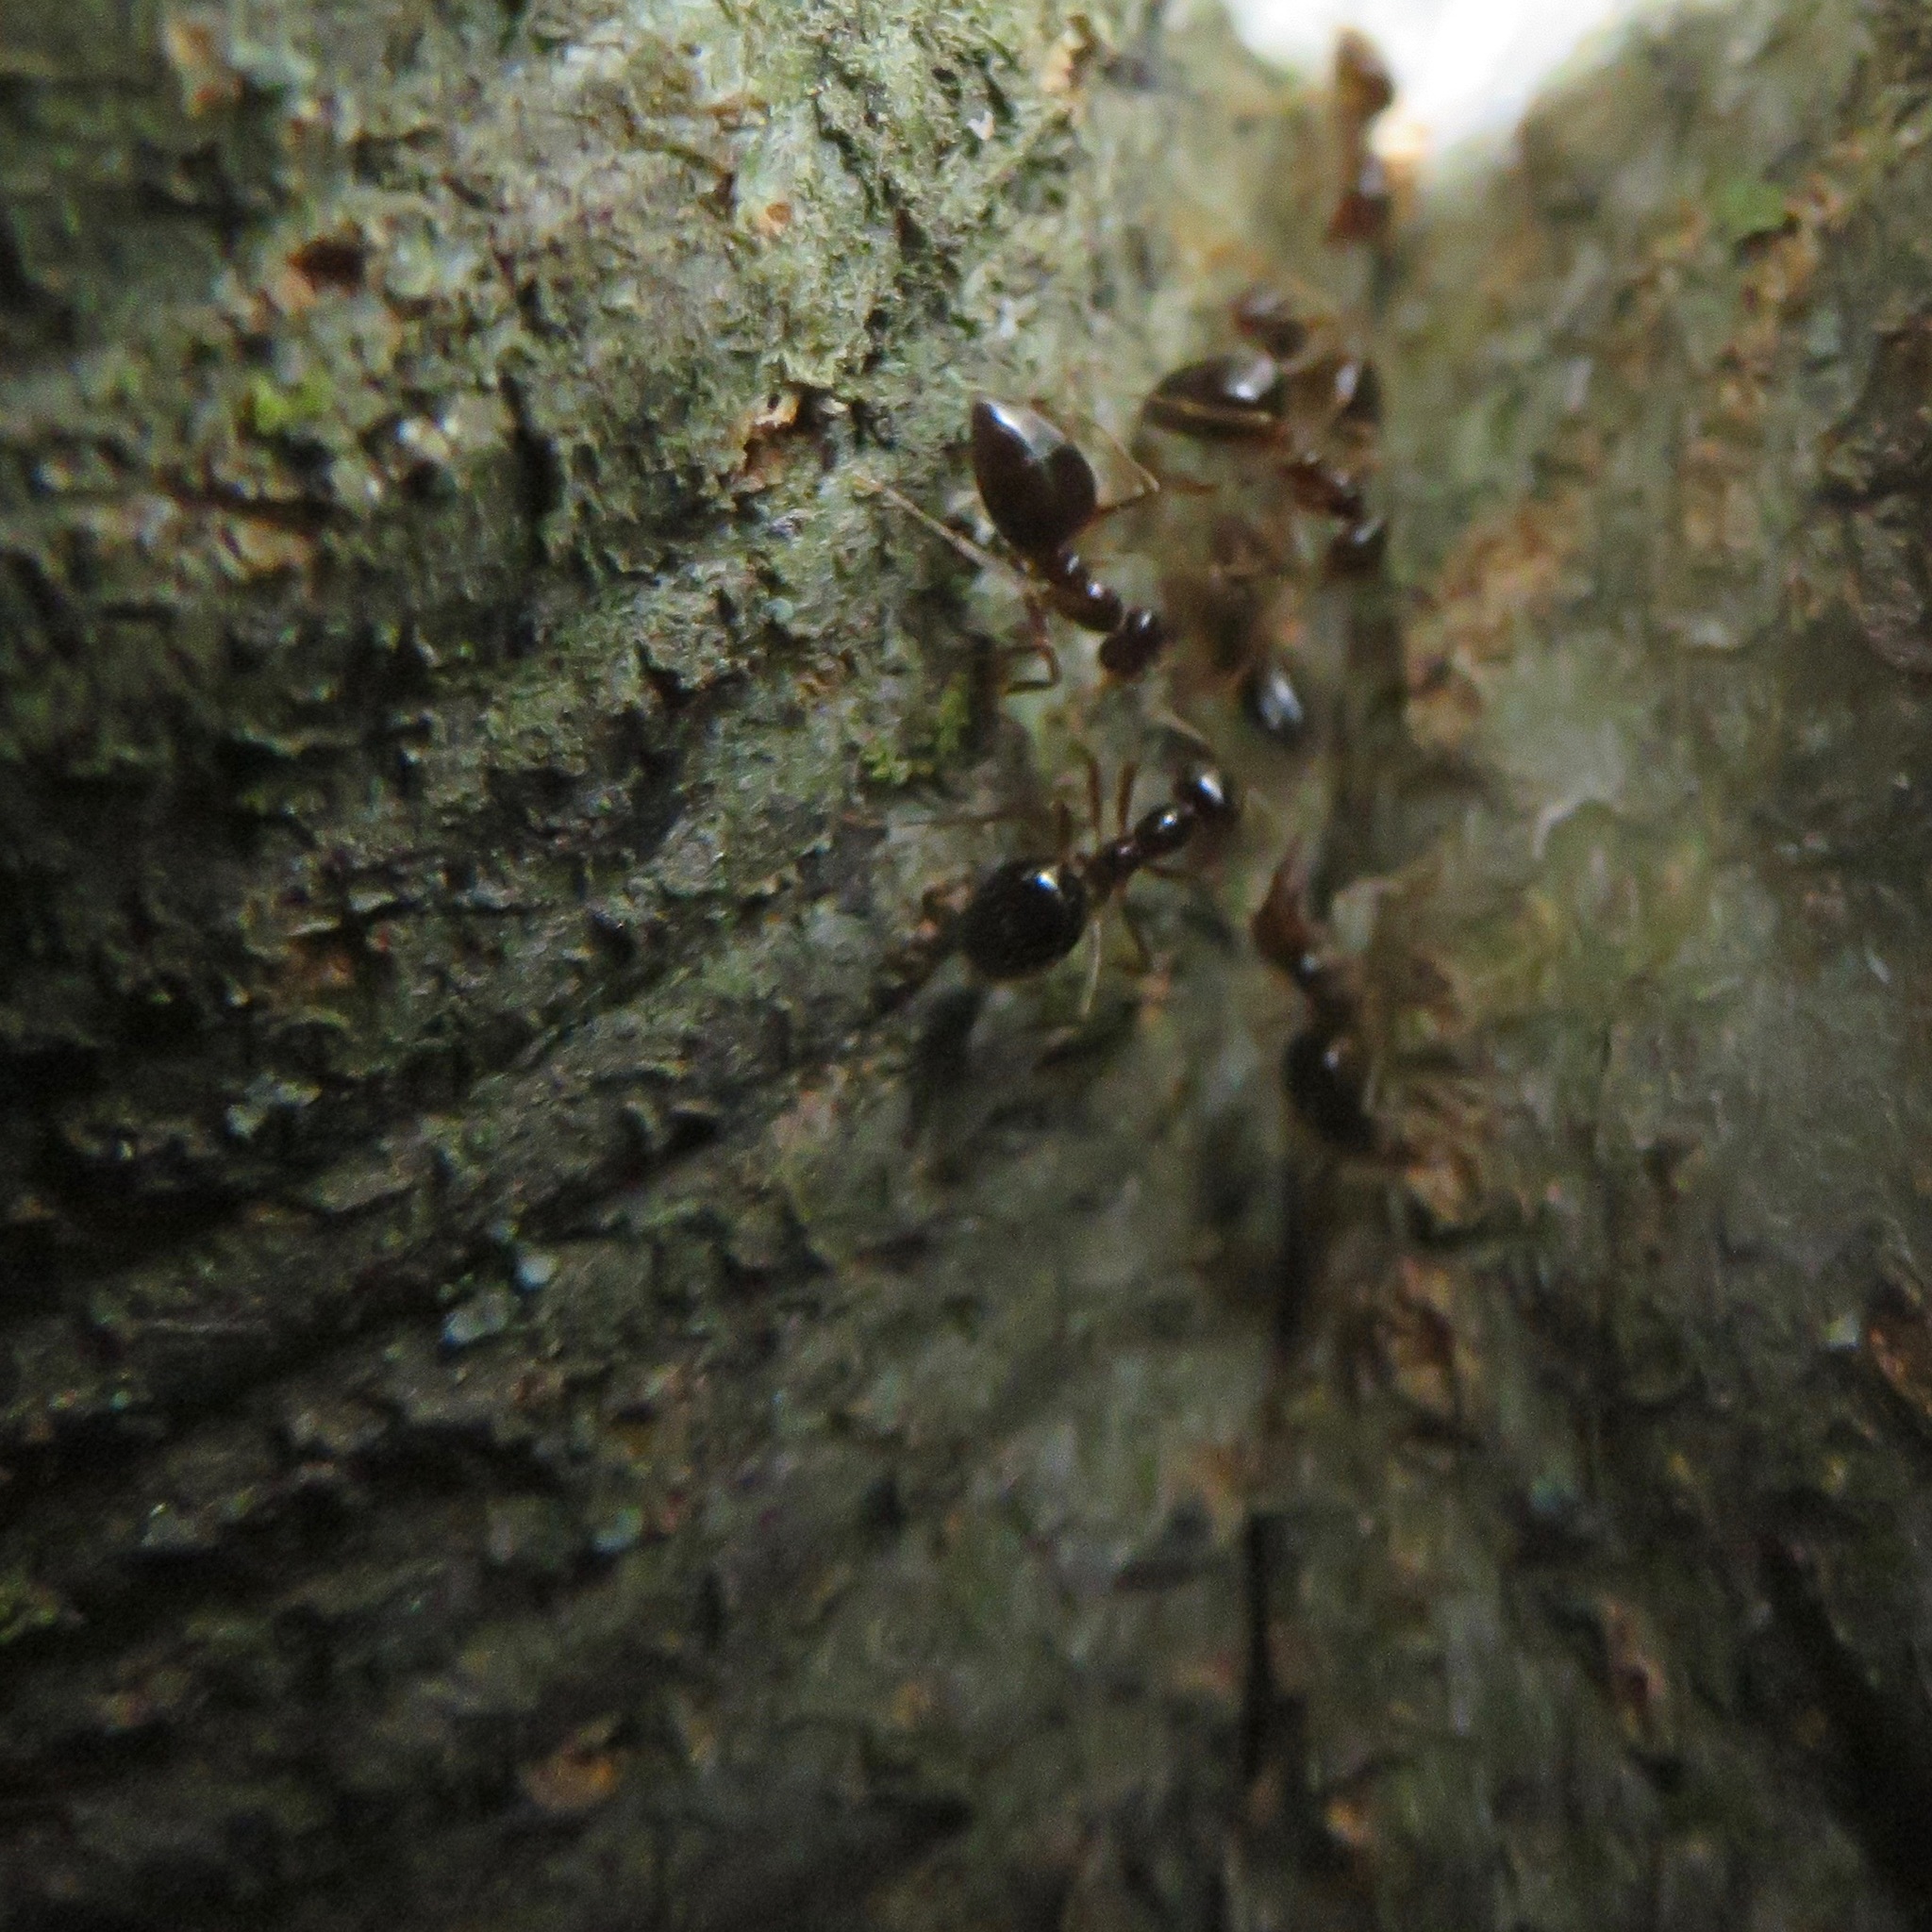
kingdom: Animalia
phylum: Arthropoda
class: Insecta
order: Hymenoptera
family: Formicidae
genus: Prenolepis
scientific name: Prenolepis imparis
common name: Small honey ant
